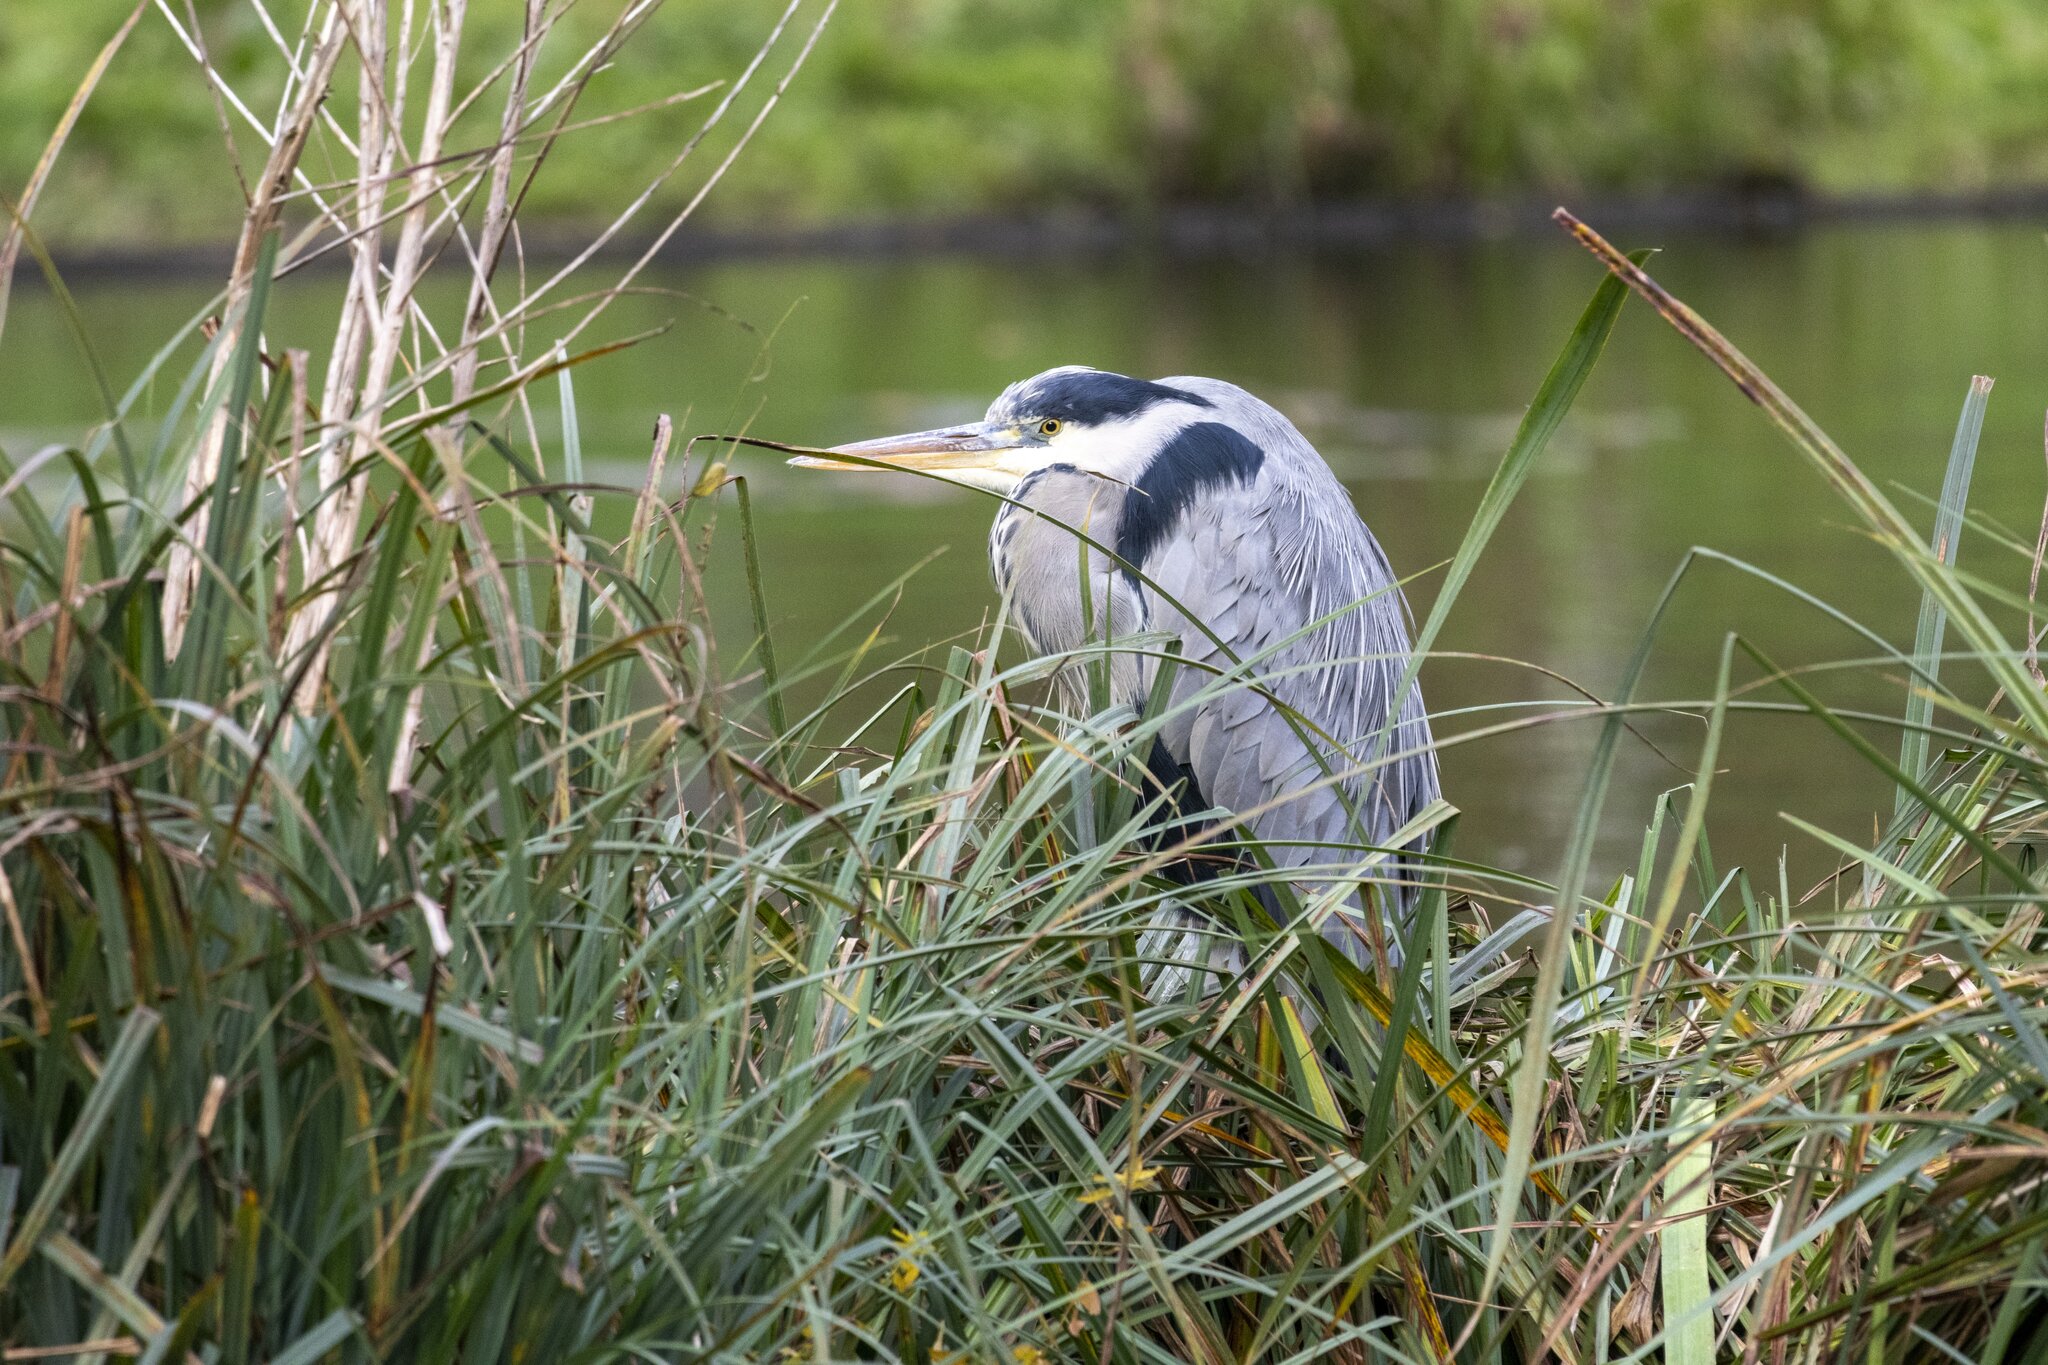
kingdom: Animalia
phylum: Chordata
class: Aves
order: Pelecaniformes
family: Ardeidae
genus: Ardea
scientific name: Ardea cinerea
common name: Grey heron
